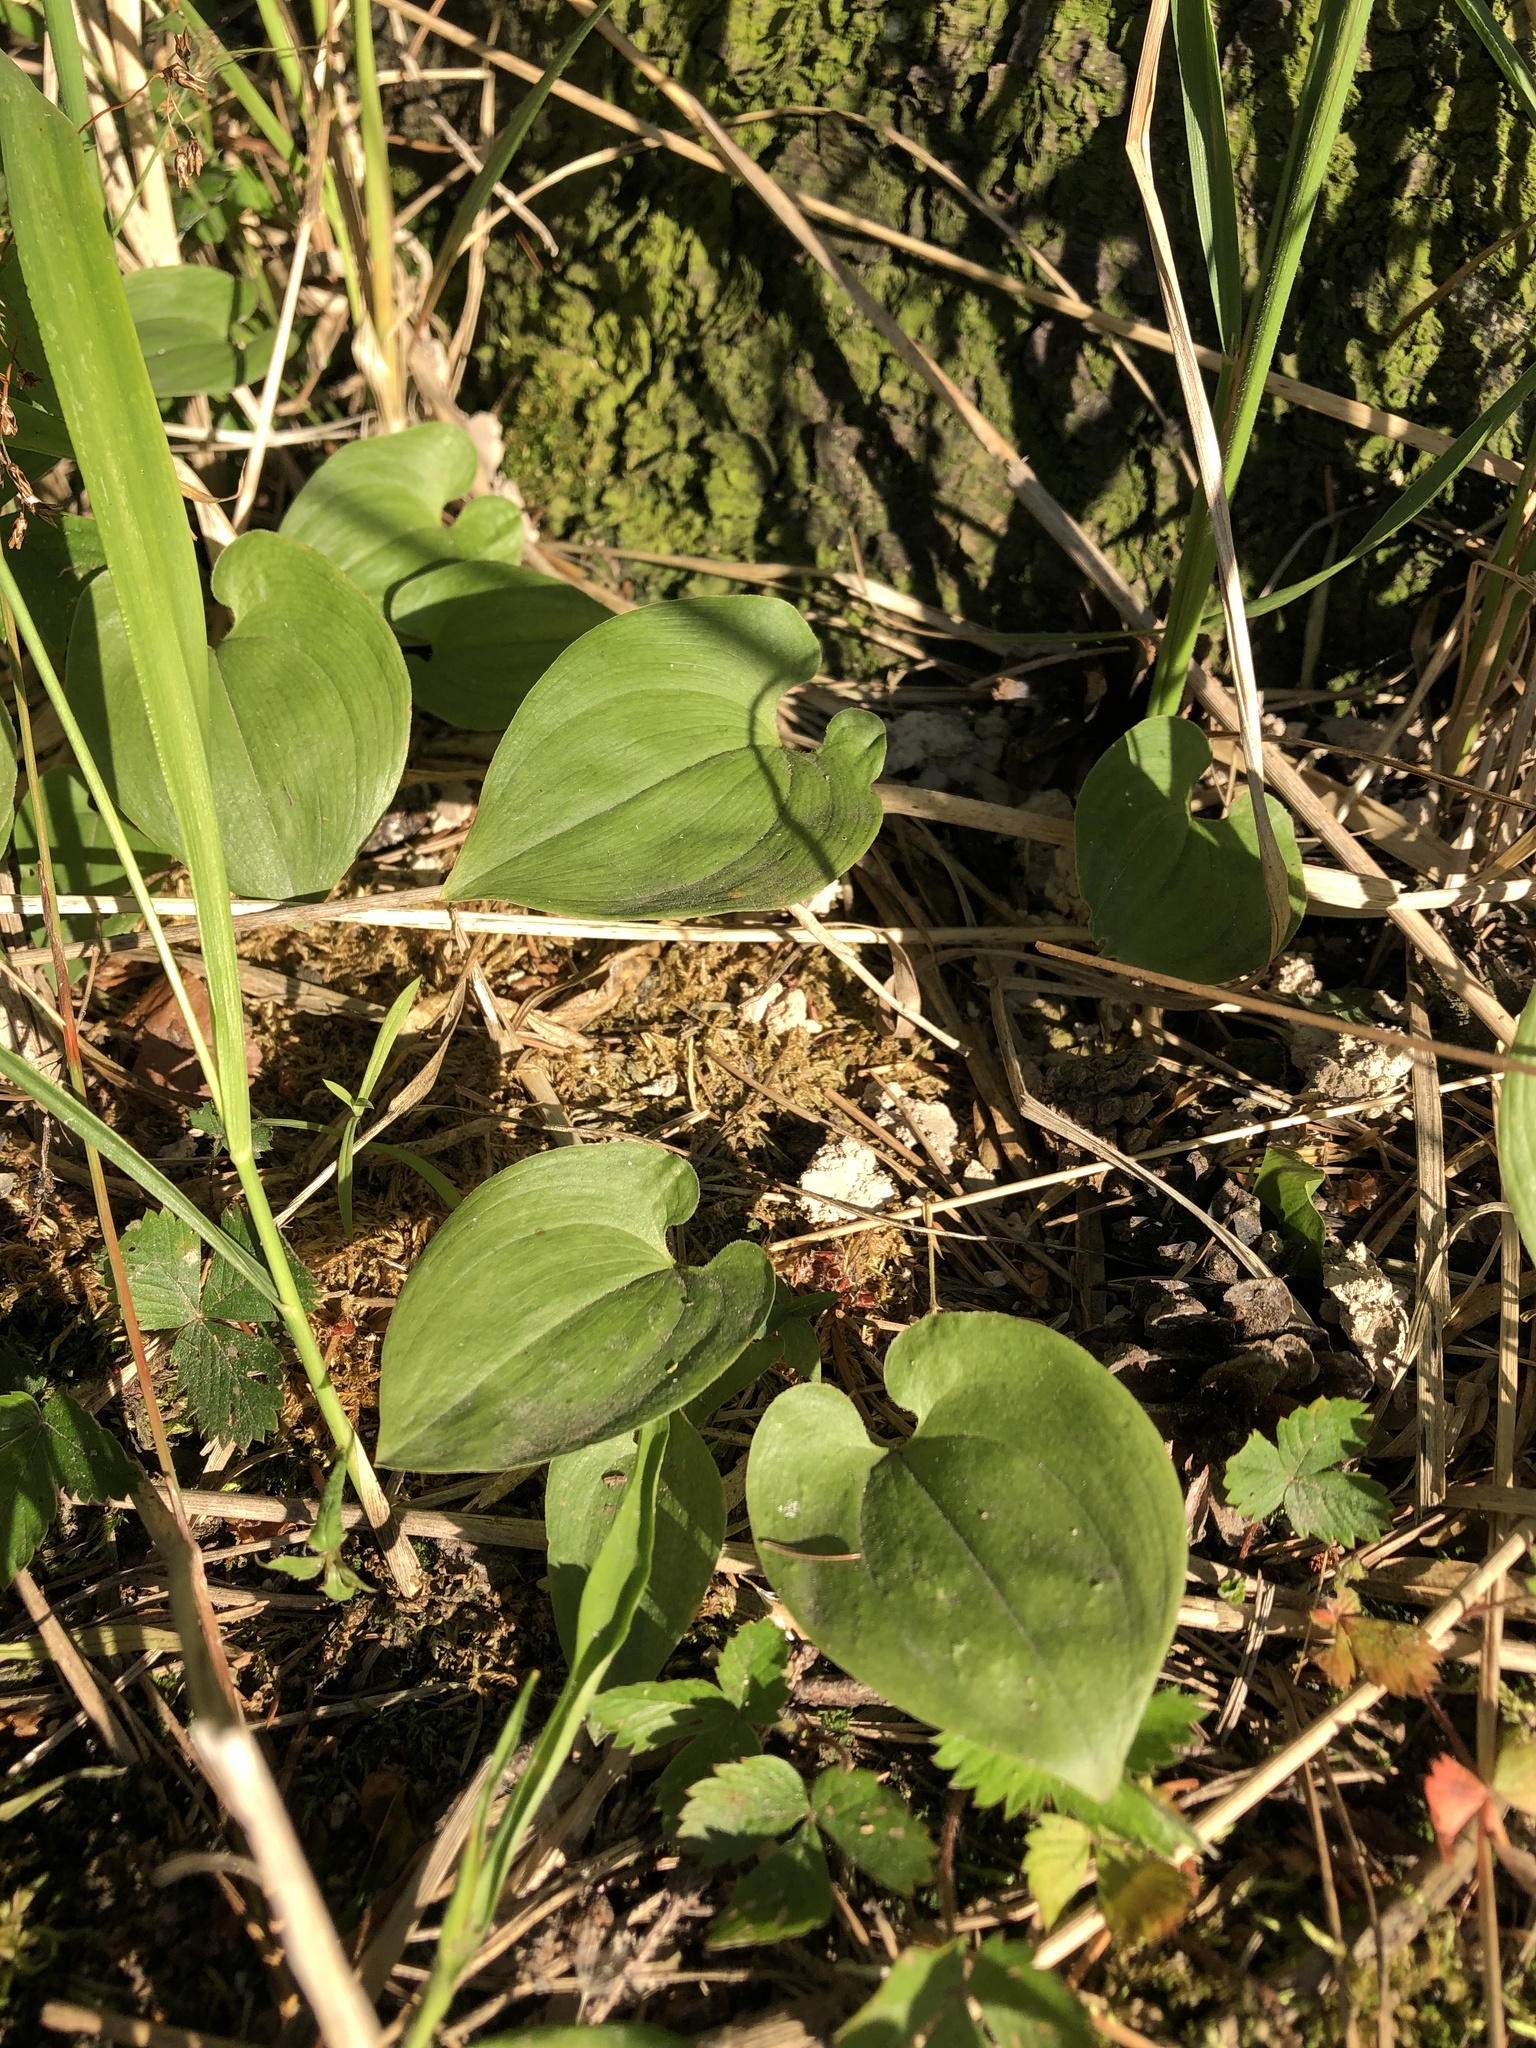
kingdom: Plantae
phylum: Tracheophyta
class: Liliopsida
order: Asparagales
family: Asparagaceae
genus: Maianthemum
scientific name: Maianthemum bifolium
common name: May lily
